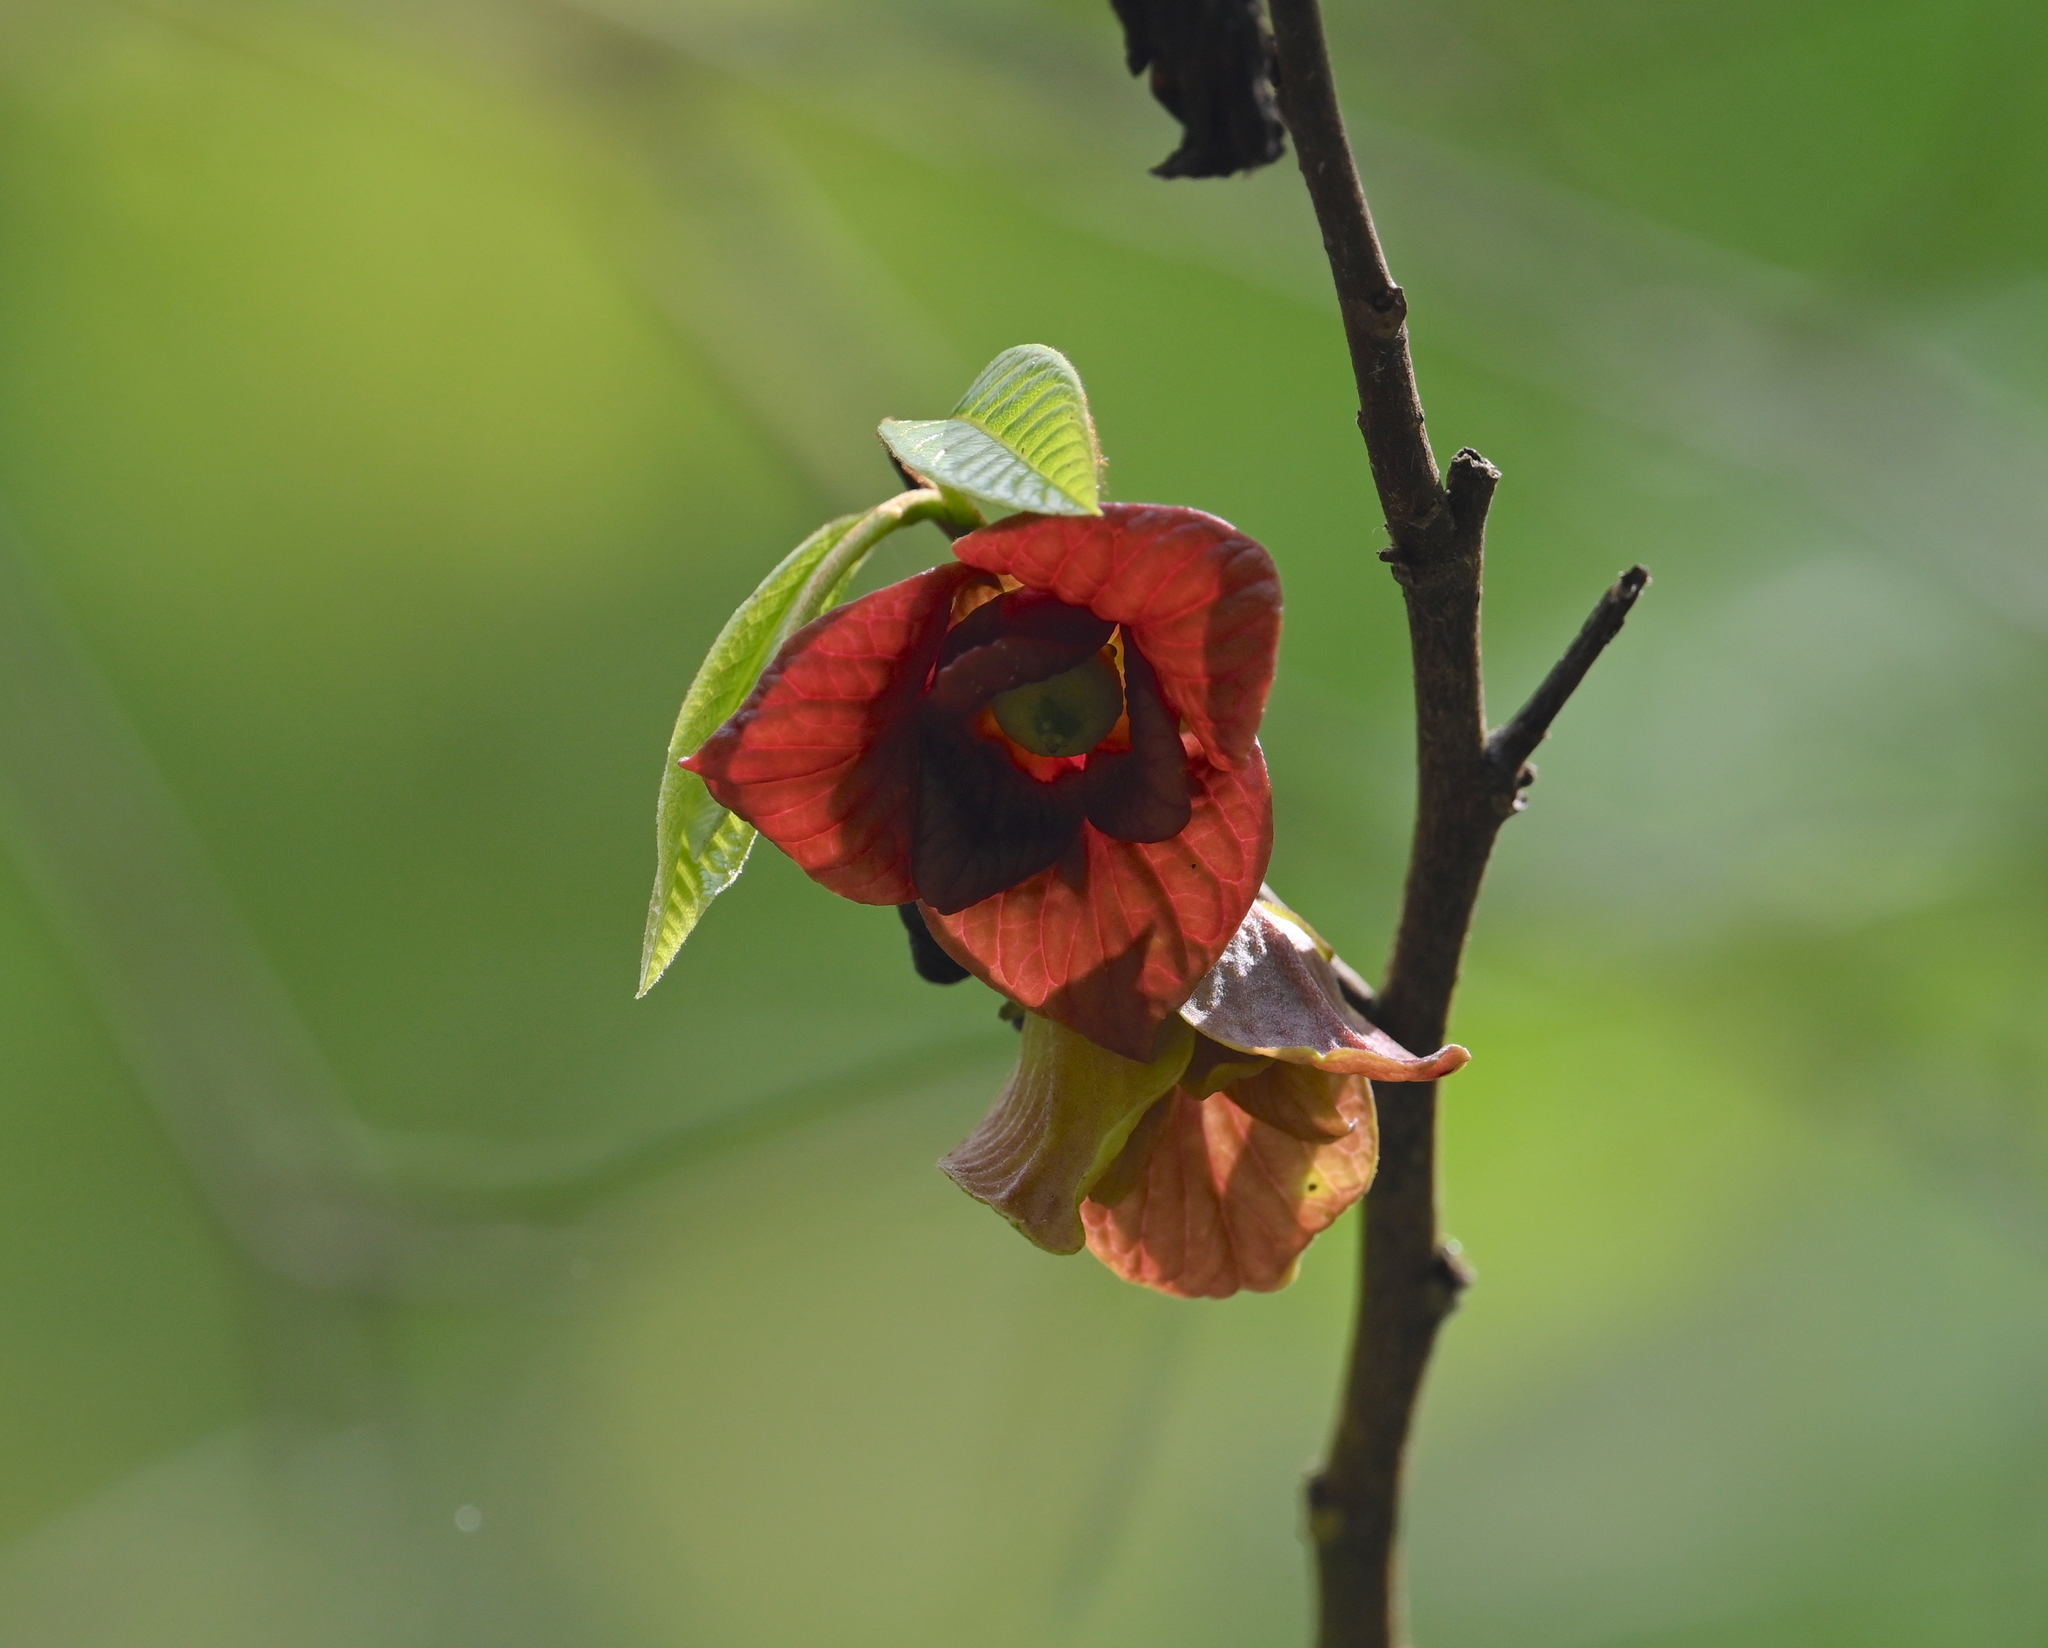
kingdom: Plantae
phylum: Tracheophyta
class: Magnoliopsida
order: Magnoliales
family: Annonaceae
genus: Asimina
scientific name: Asimina triloba
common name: Dog-banana
